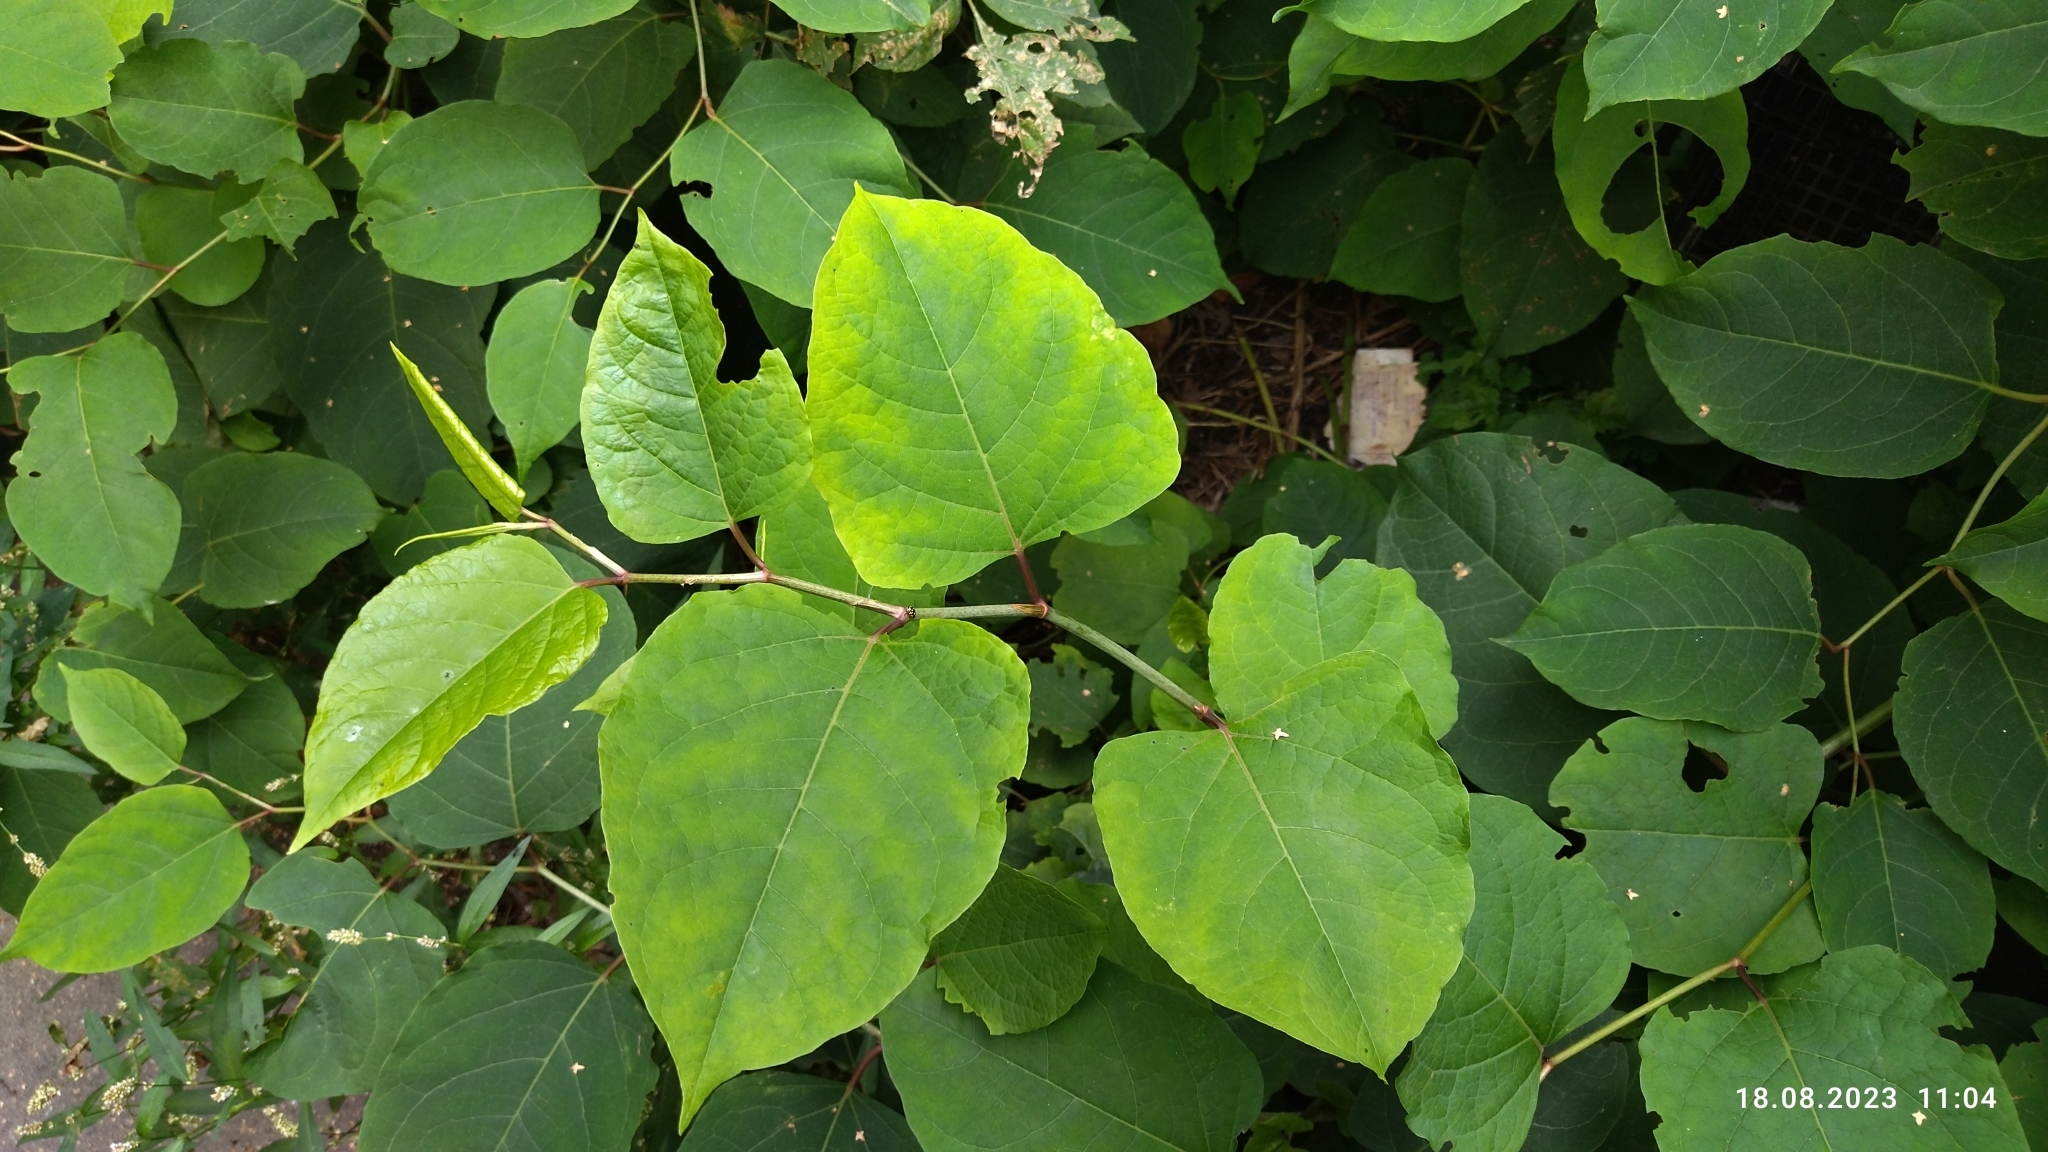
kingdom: Plantae
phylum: Tracheophyta
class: Magnoliopsida
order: Caryophyllales
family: Polygonaceae
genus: Reynoutria
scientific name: Reynoutria bohemica
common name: Bohemian knotweed
